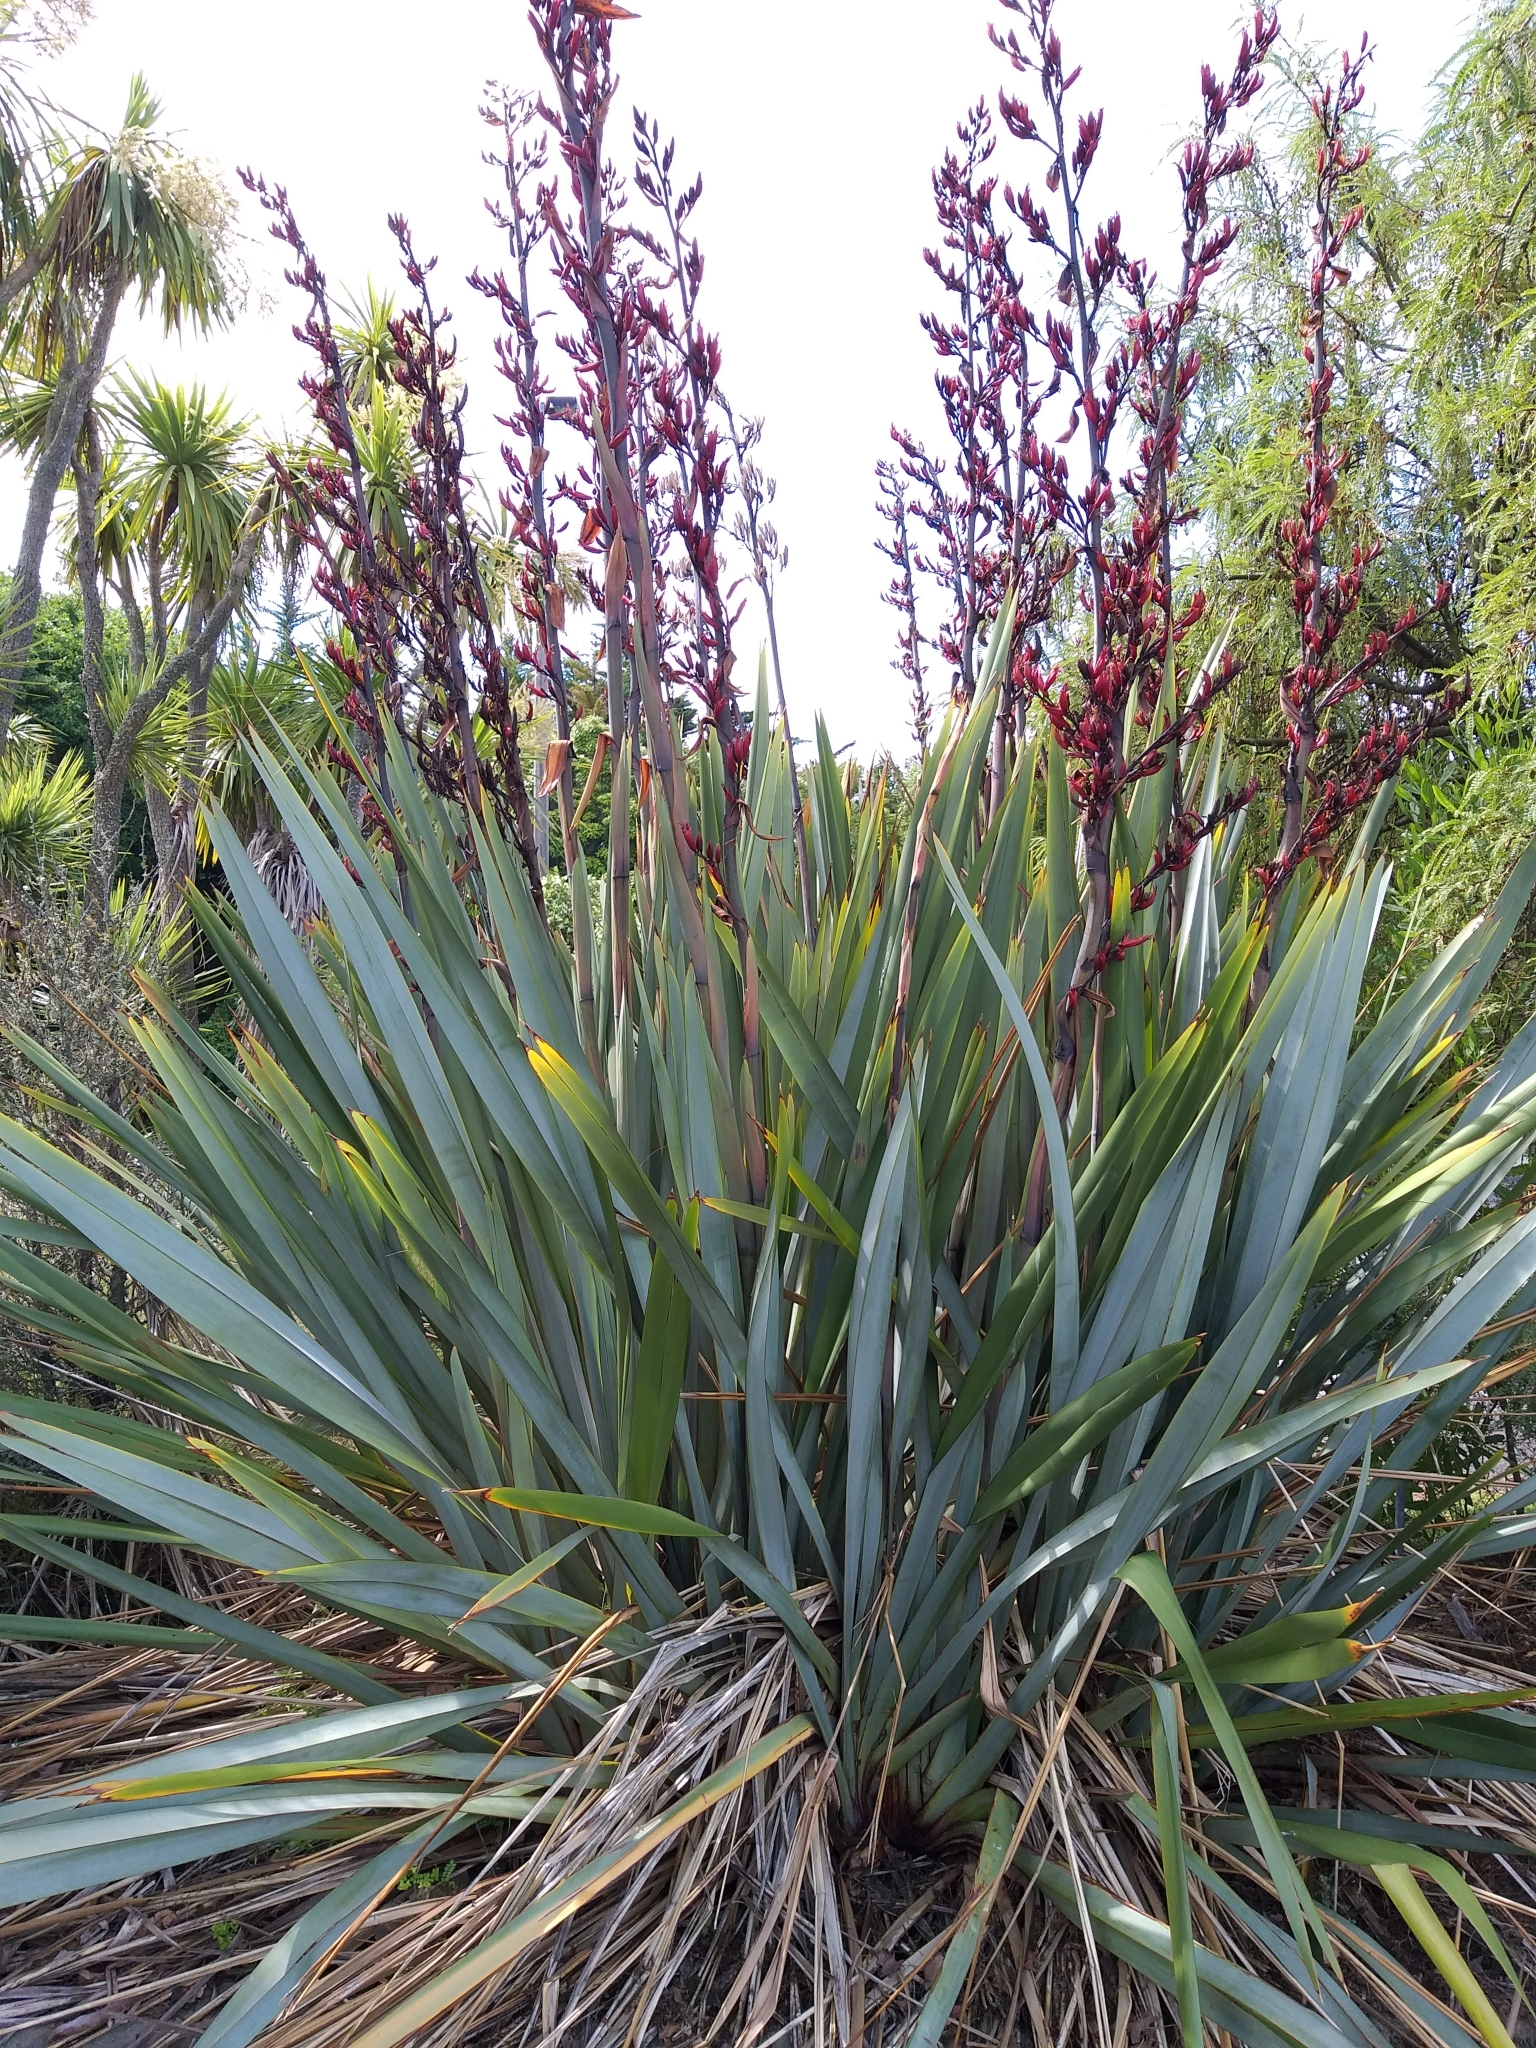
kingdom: Plantae
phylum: Tracheophyta
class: Liliopsida
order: Asparagales
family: Asphodelaceae
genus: Phormium
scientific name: Phormium tenax
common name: New zealand flax
